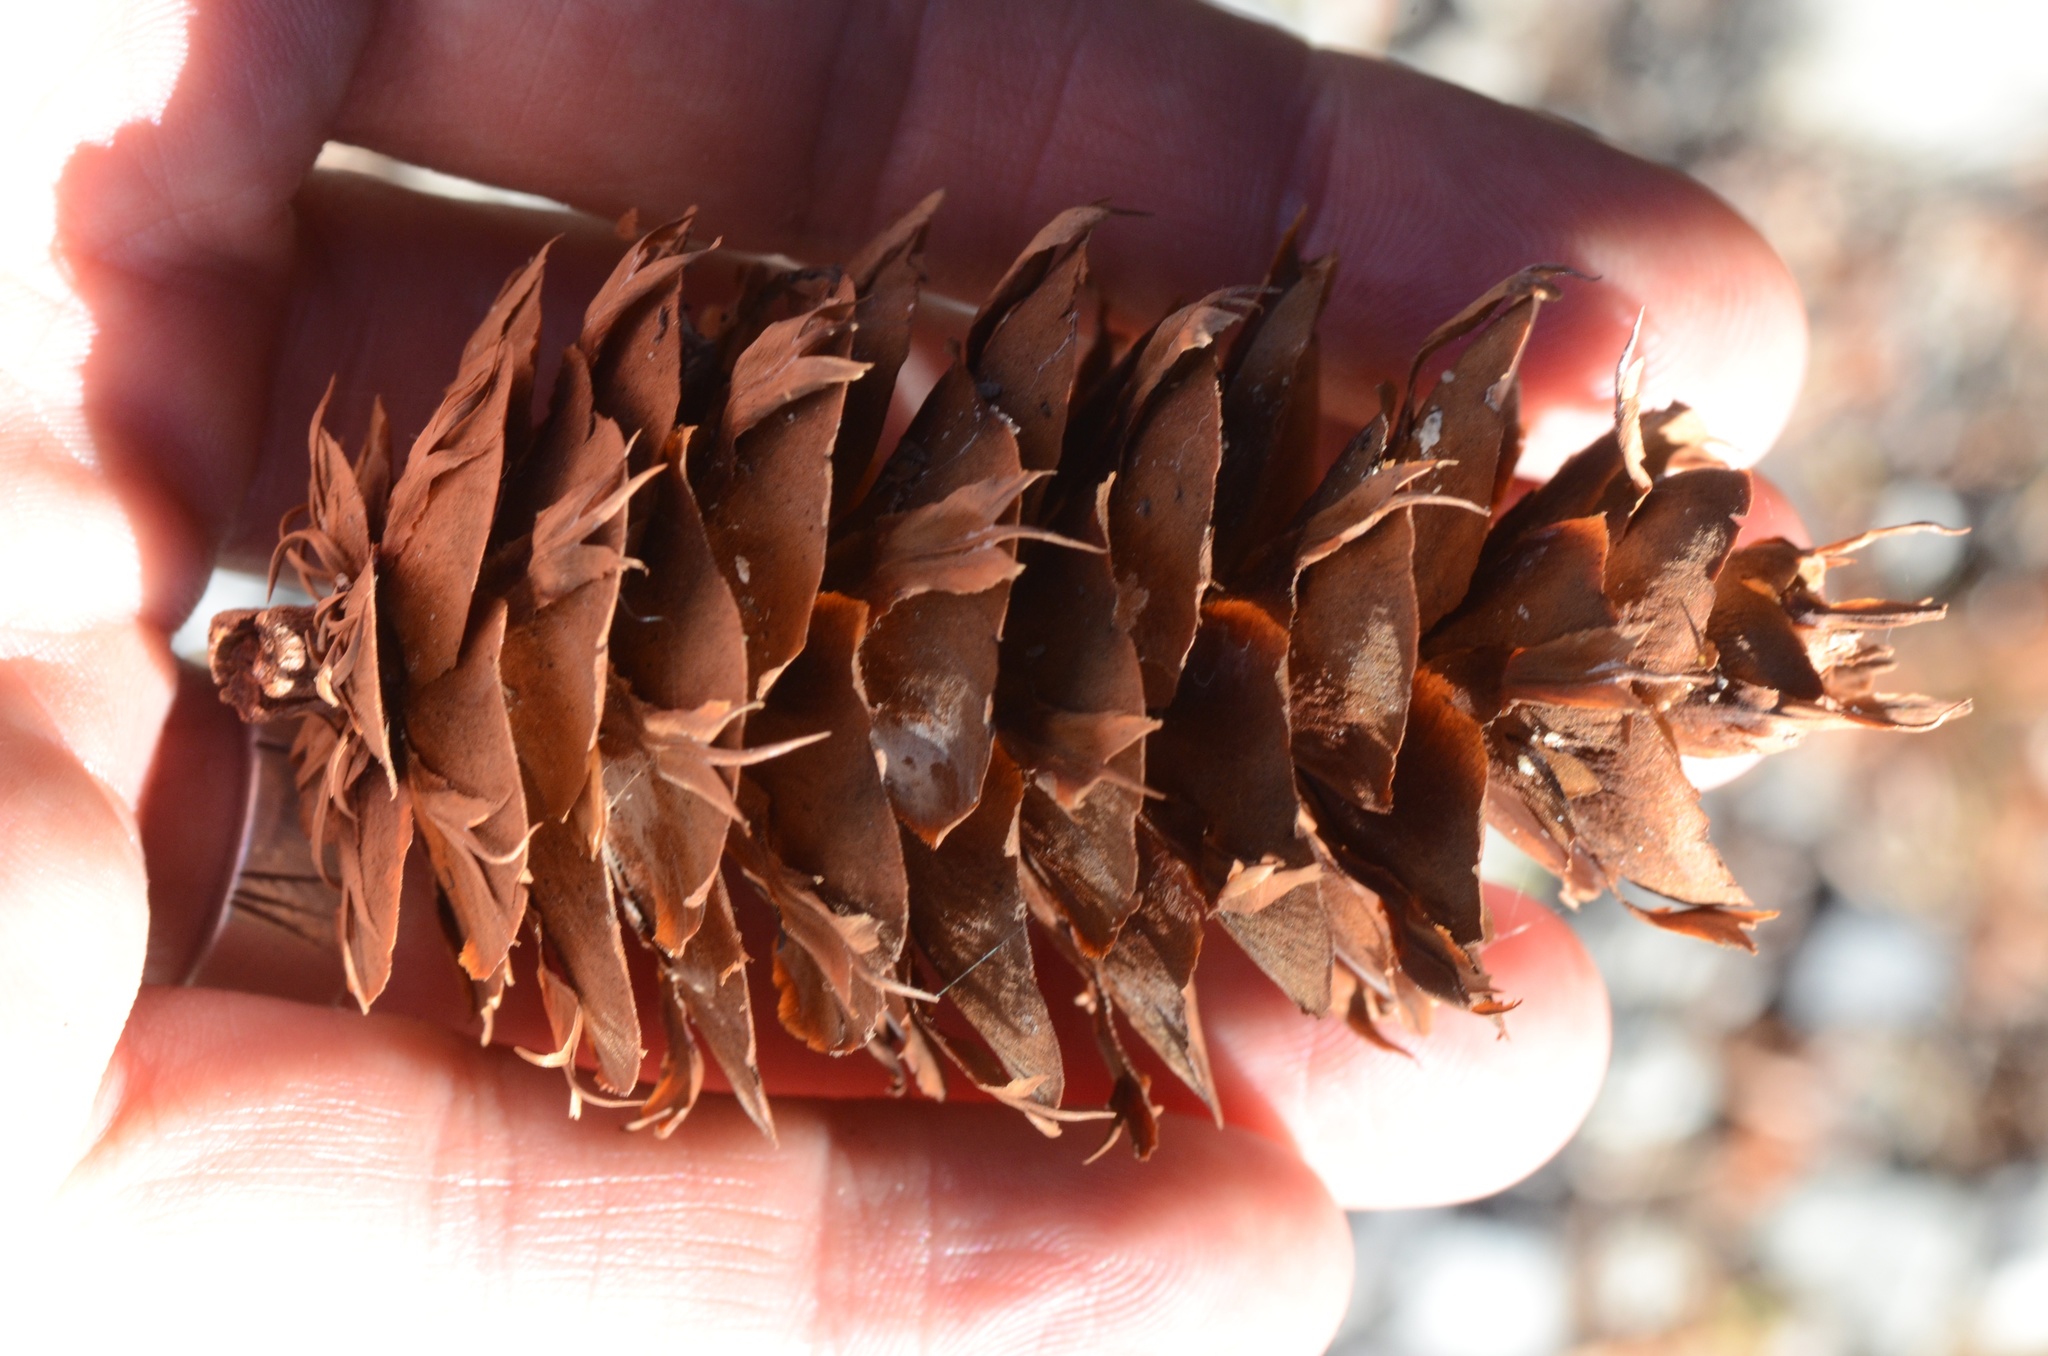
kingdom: Plantae
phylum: Tracheophyta
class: Pinopsida
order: Pinales
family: Pinaceae
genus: Pseudotsuga
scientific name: Pseudotsuga menziesii
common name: Douglas fir
